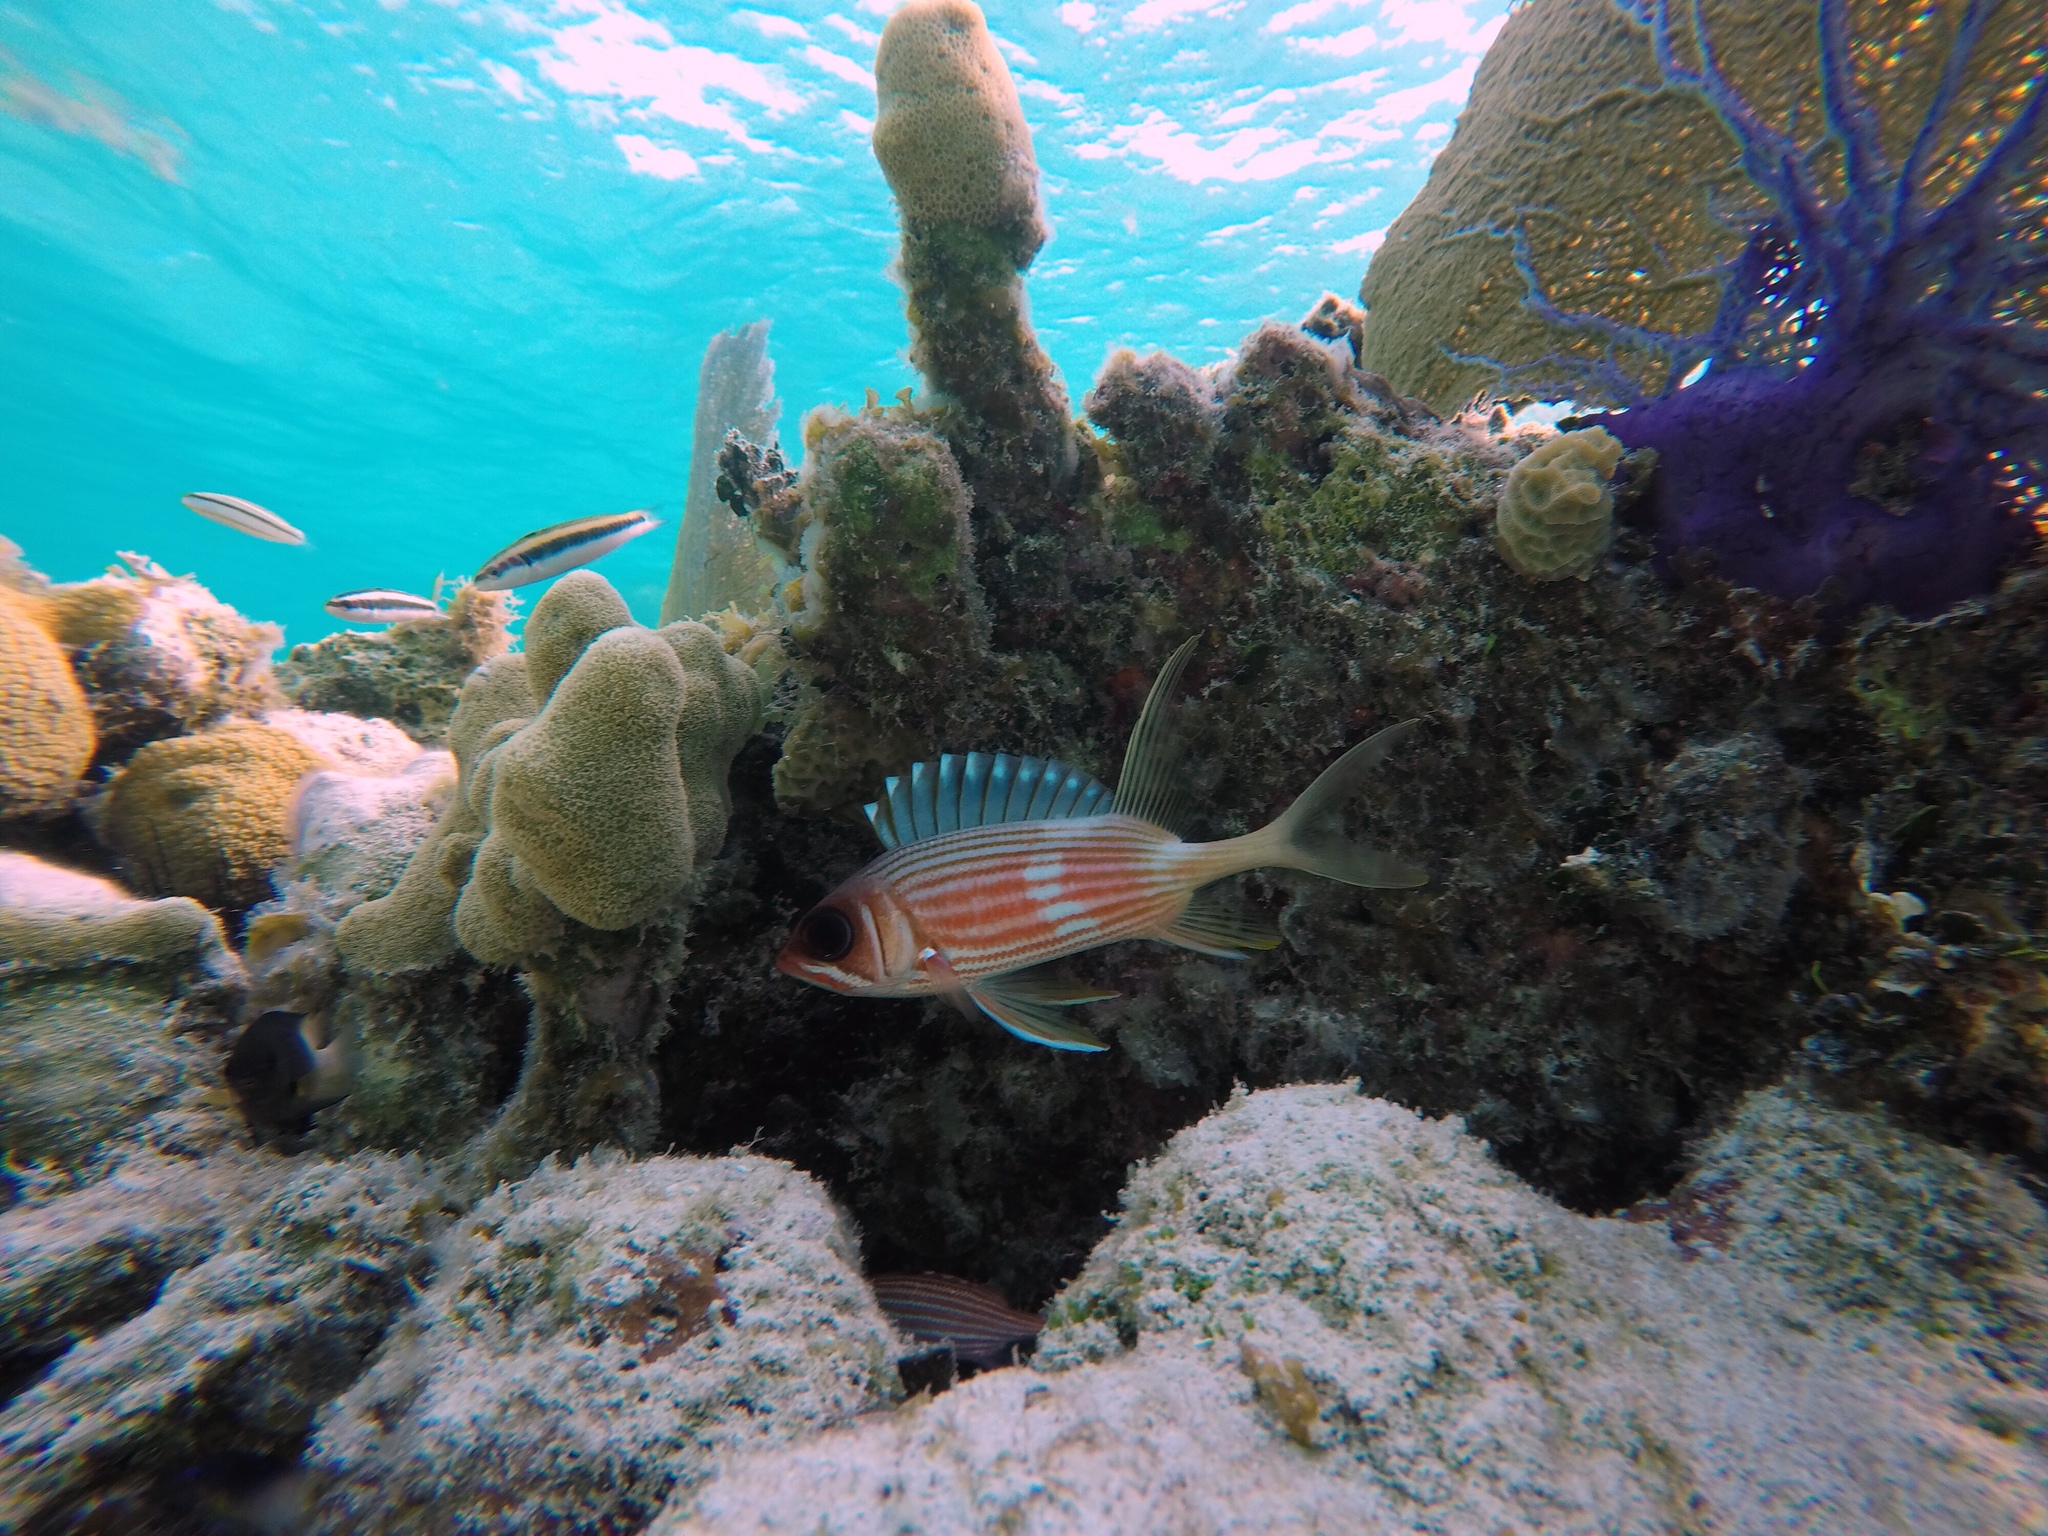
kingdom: Animalia
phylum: Chordata
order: Beryciformes
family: Holocentridae
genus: Holocentrus
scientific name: Holocentrus rufus
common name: Longspine squirrelfish
